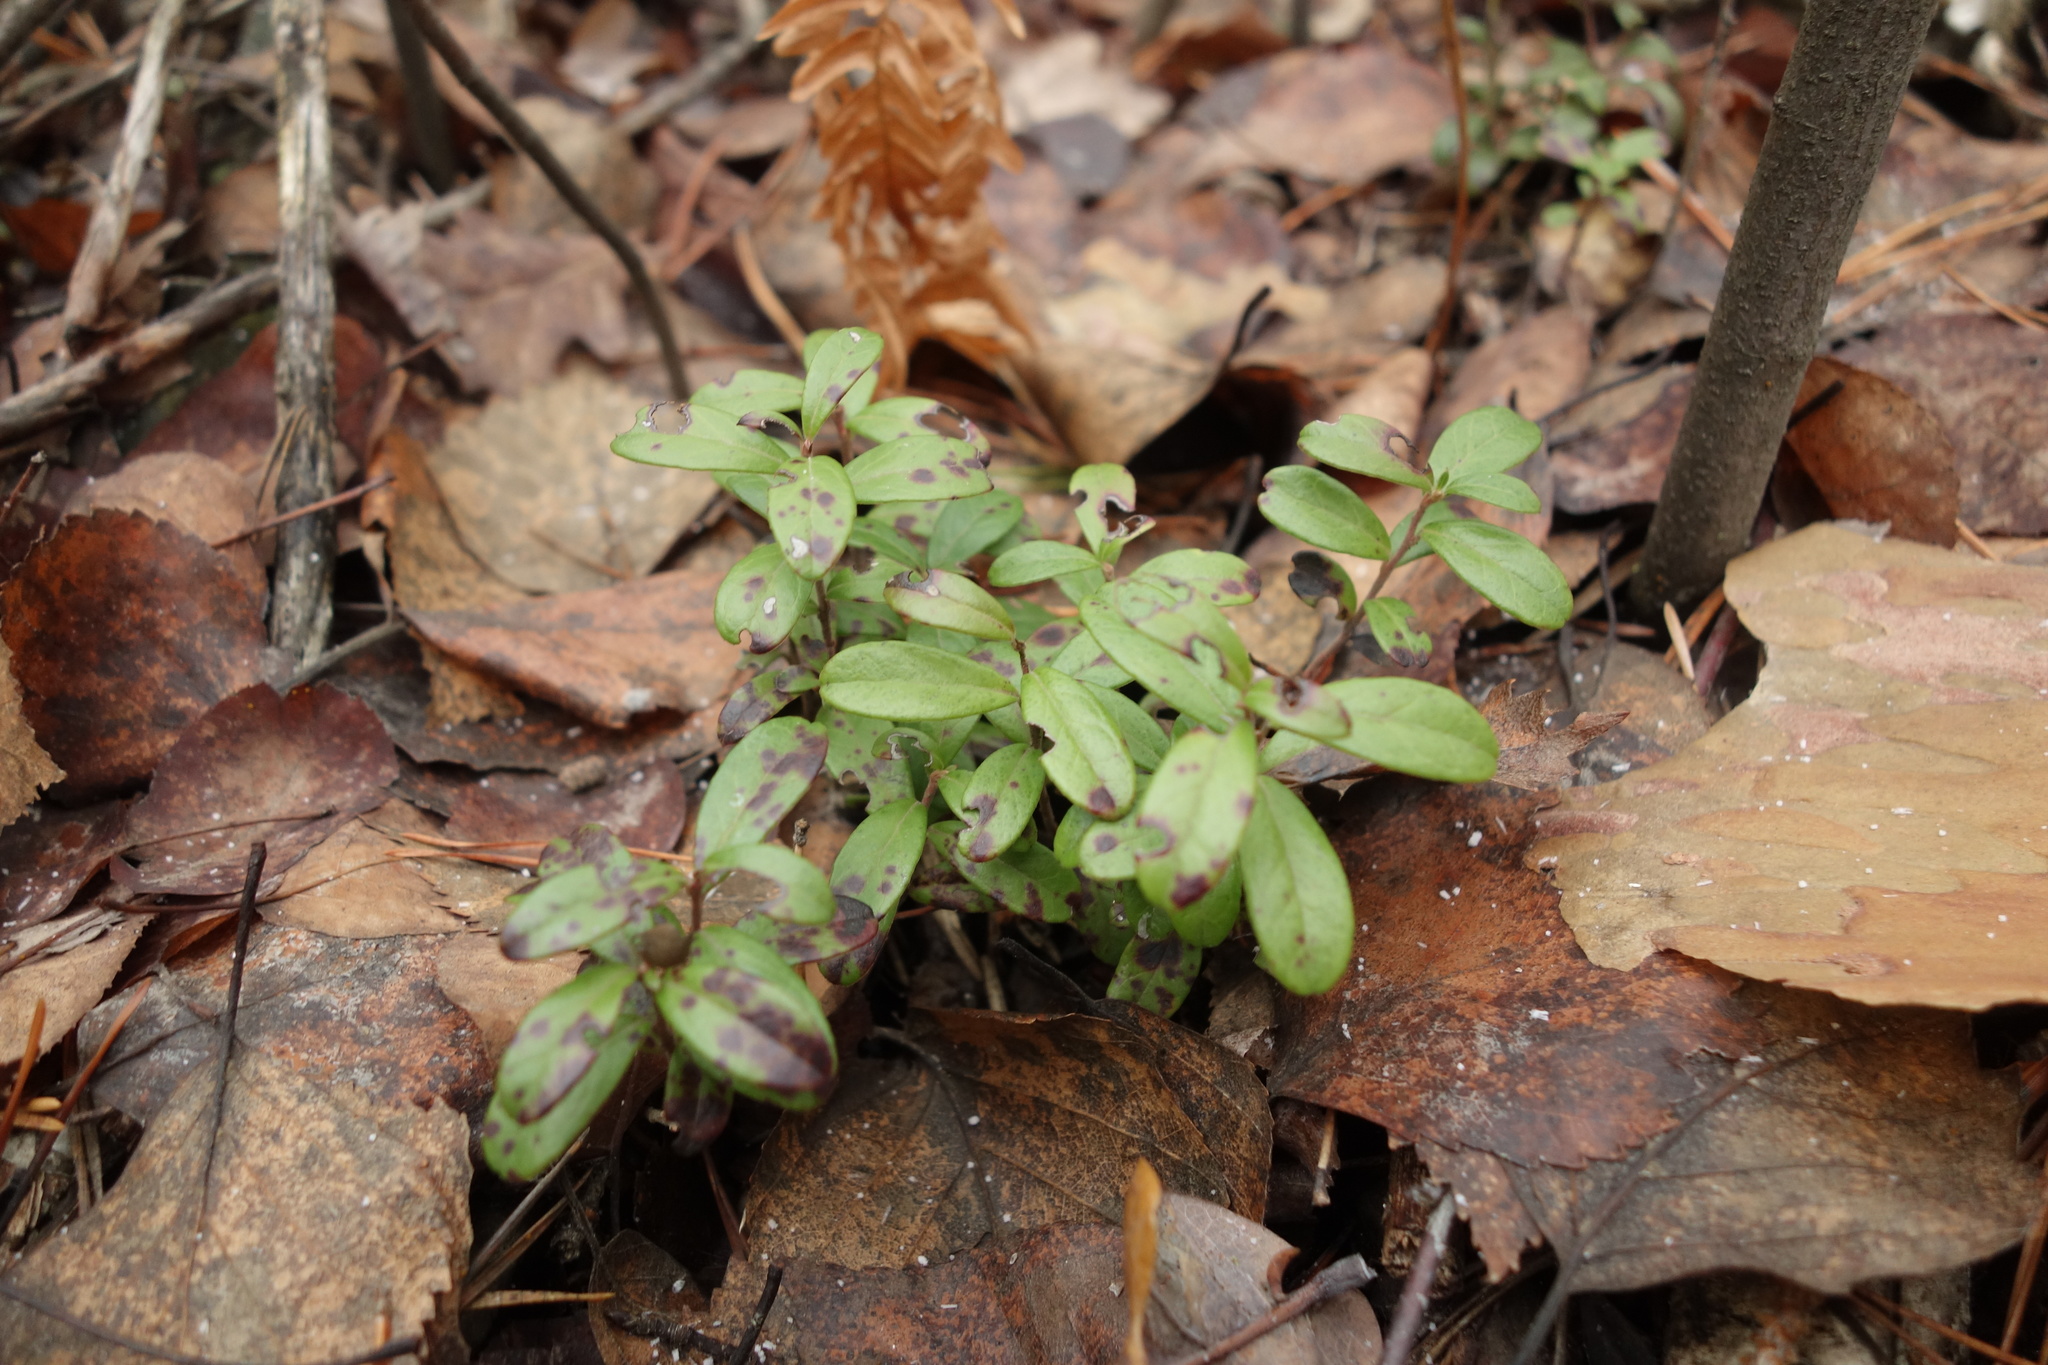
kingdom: Plantae
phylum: Tracheophyta
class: Magnoliopsida
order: Ericales
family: Ericaceae
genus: Vaccinium
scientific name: Vaccinium vitis-idaea
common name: Cowberry
